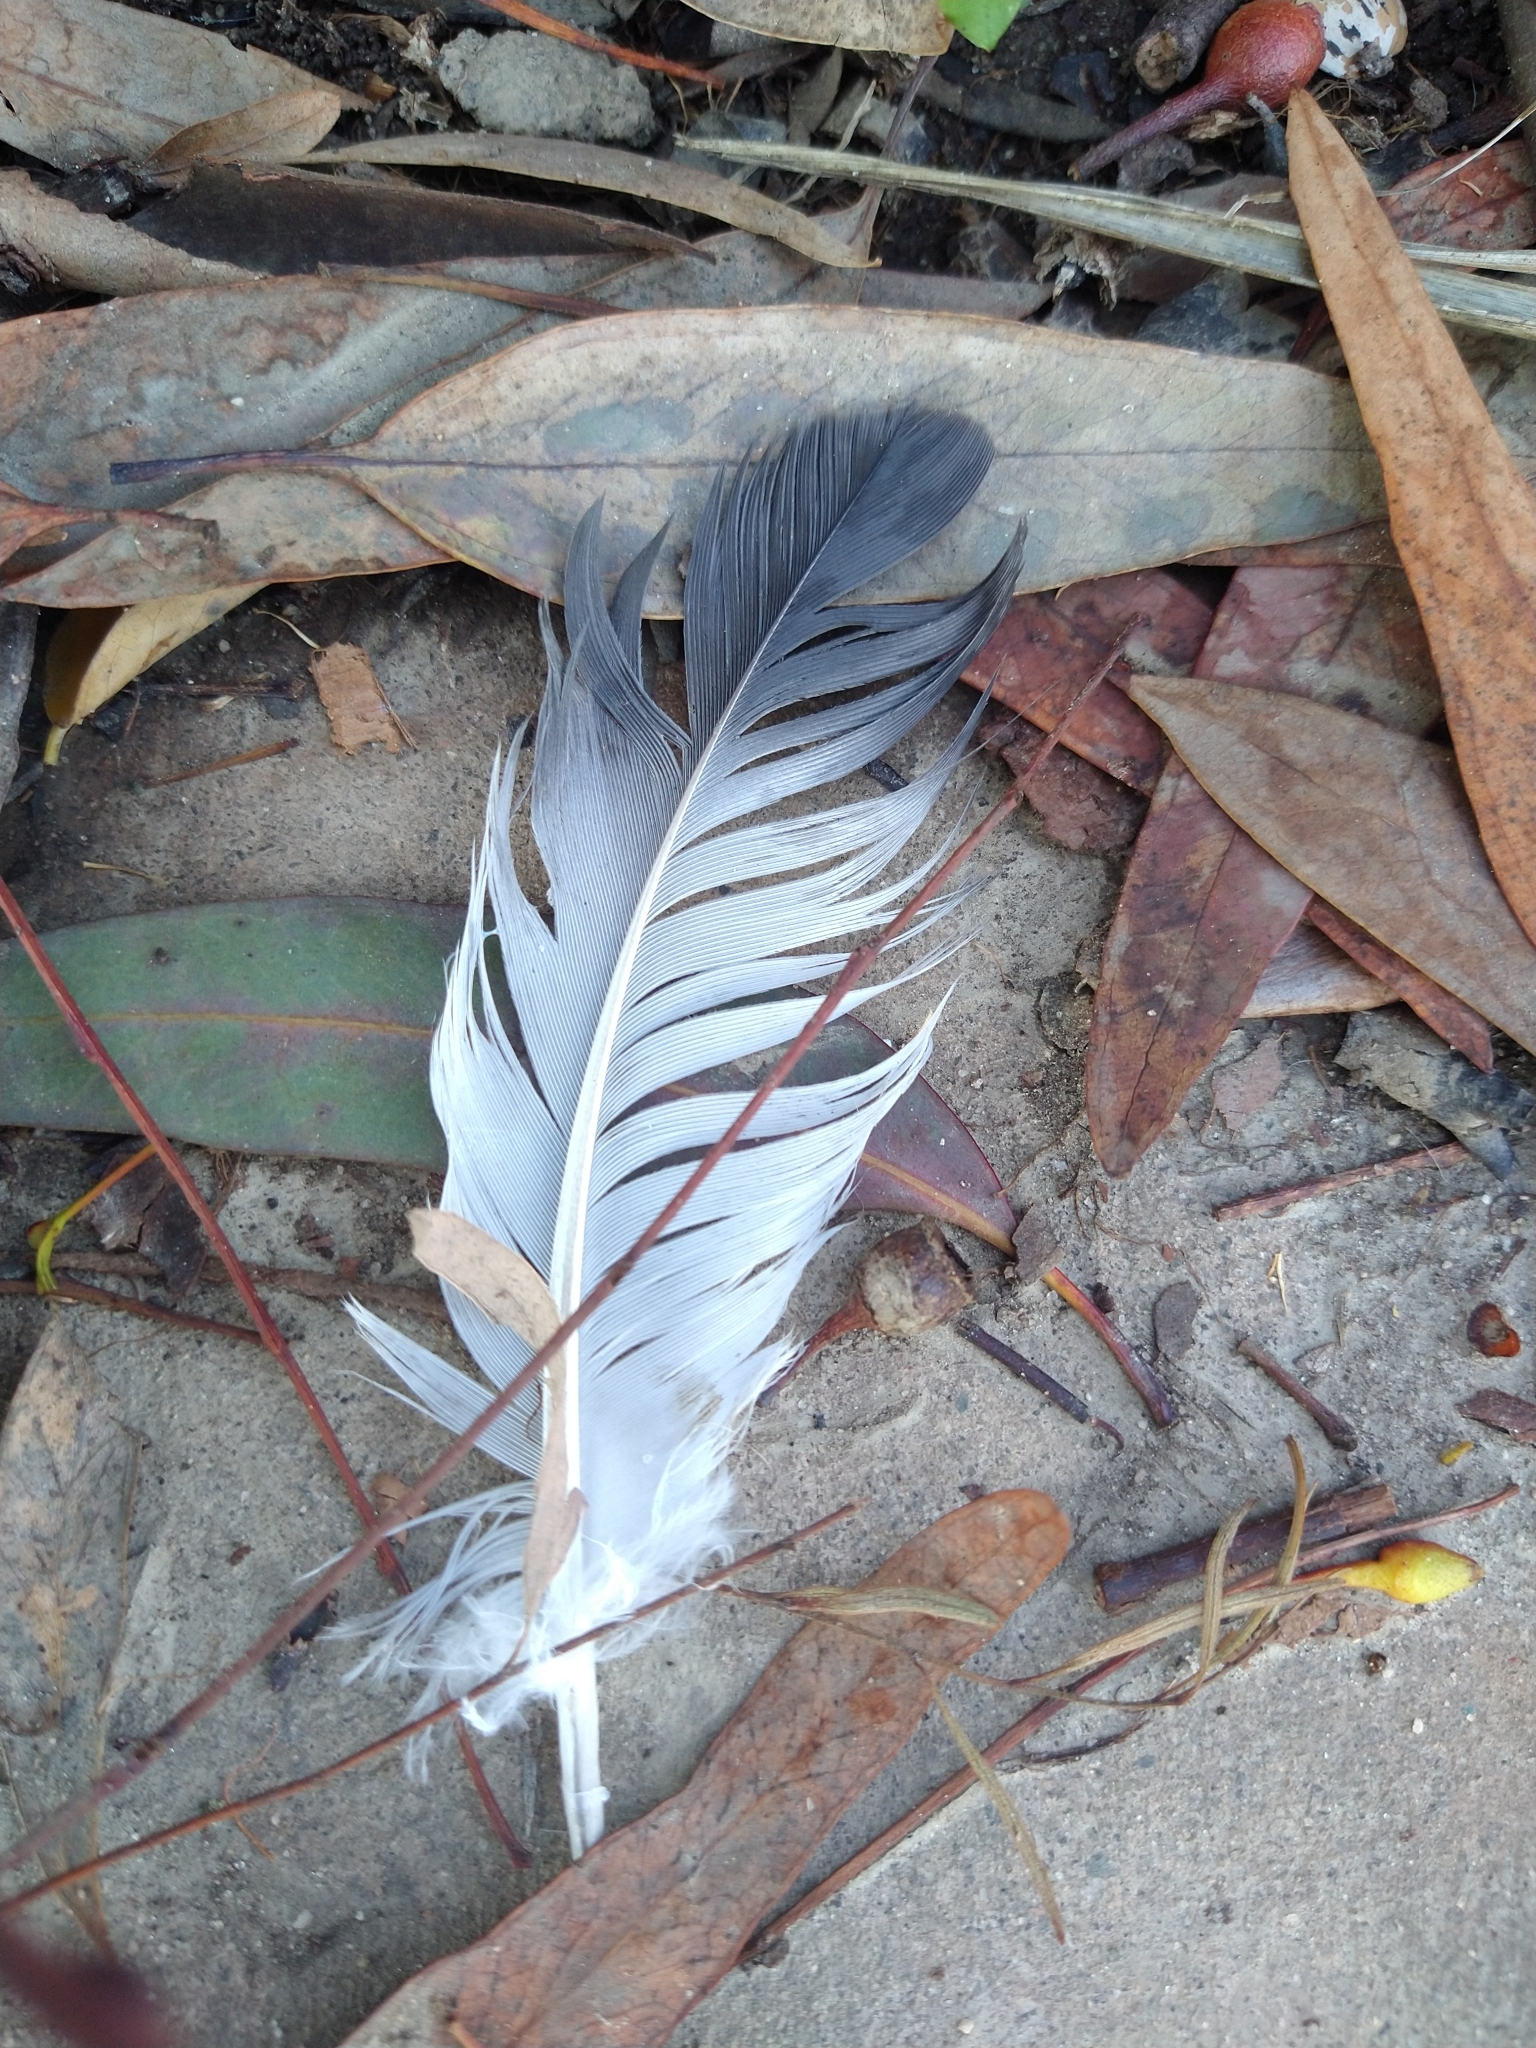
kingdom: Animalia
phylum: Chordata
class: Aves
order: Columbiformes
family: Columbidae
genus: Columba
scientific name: Columba livia
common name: Rock pigeon
